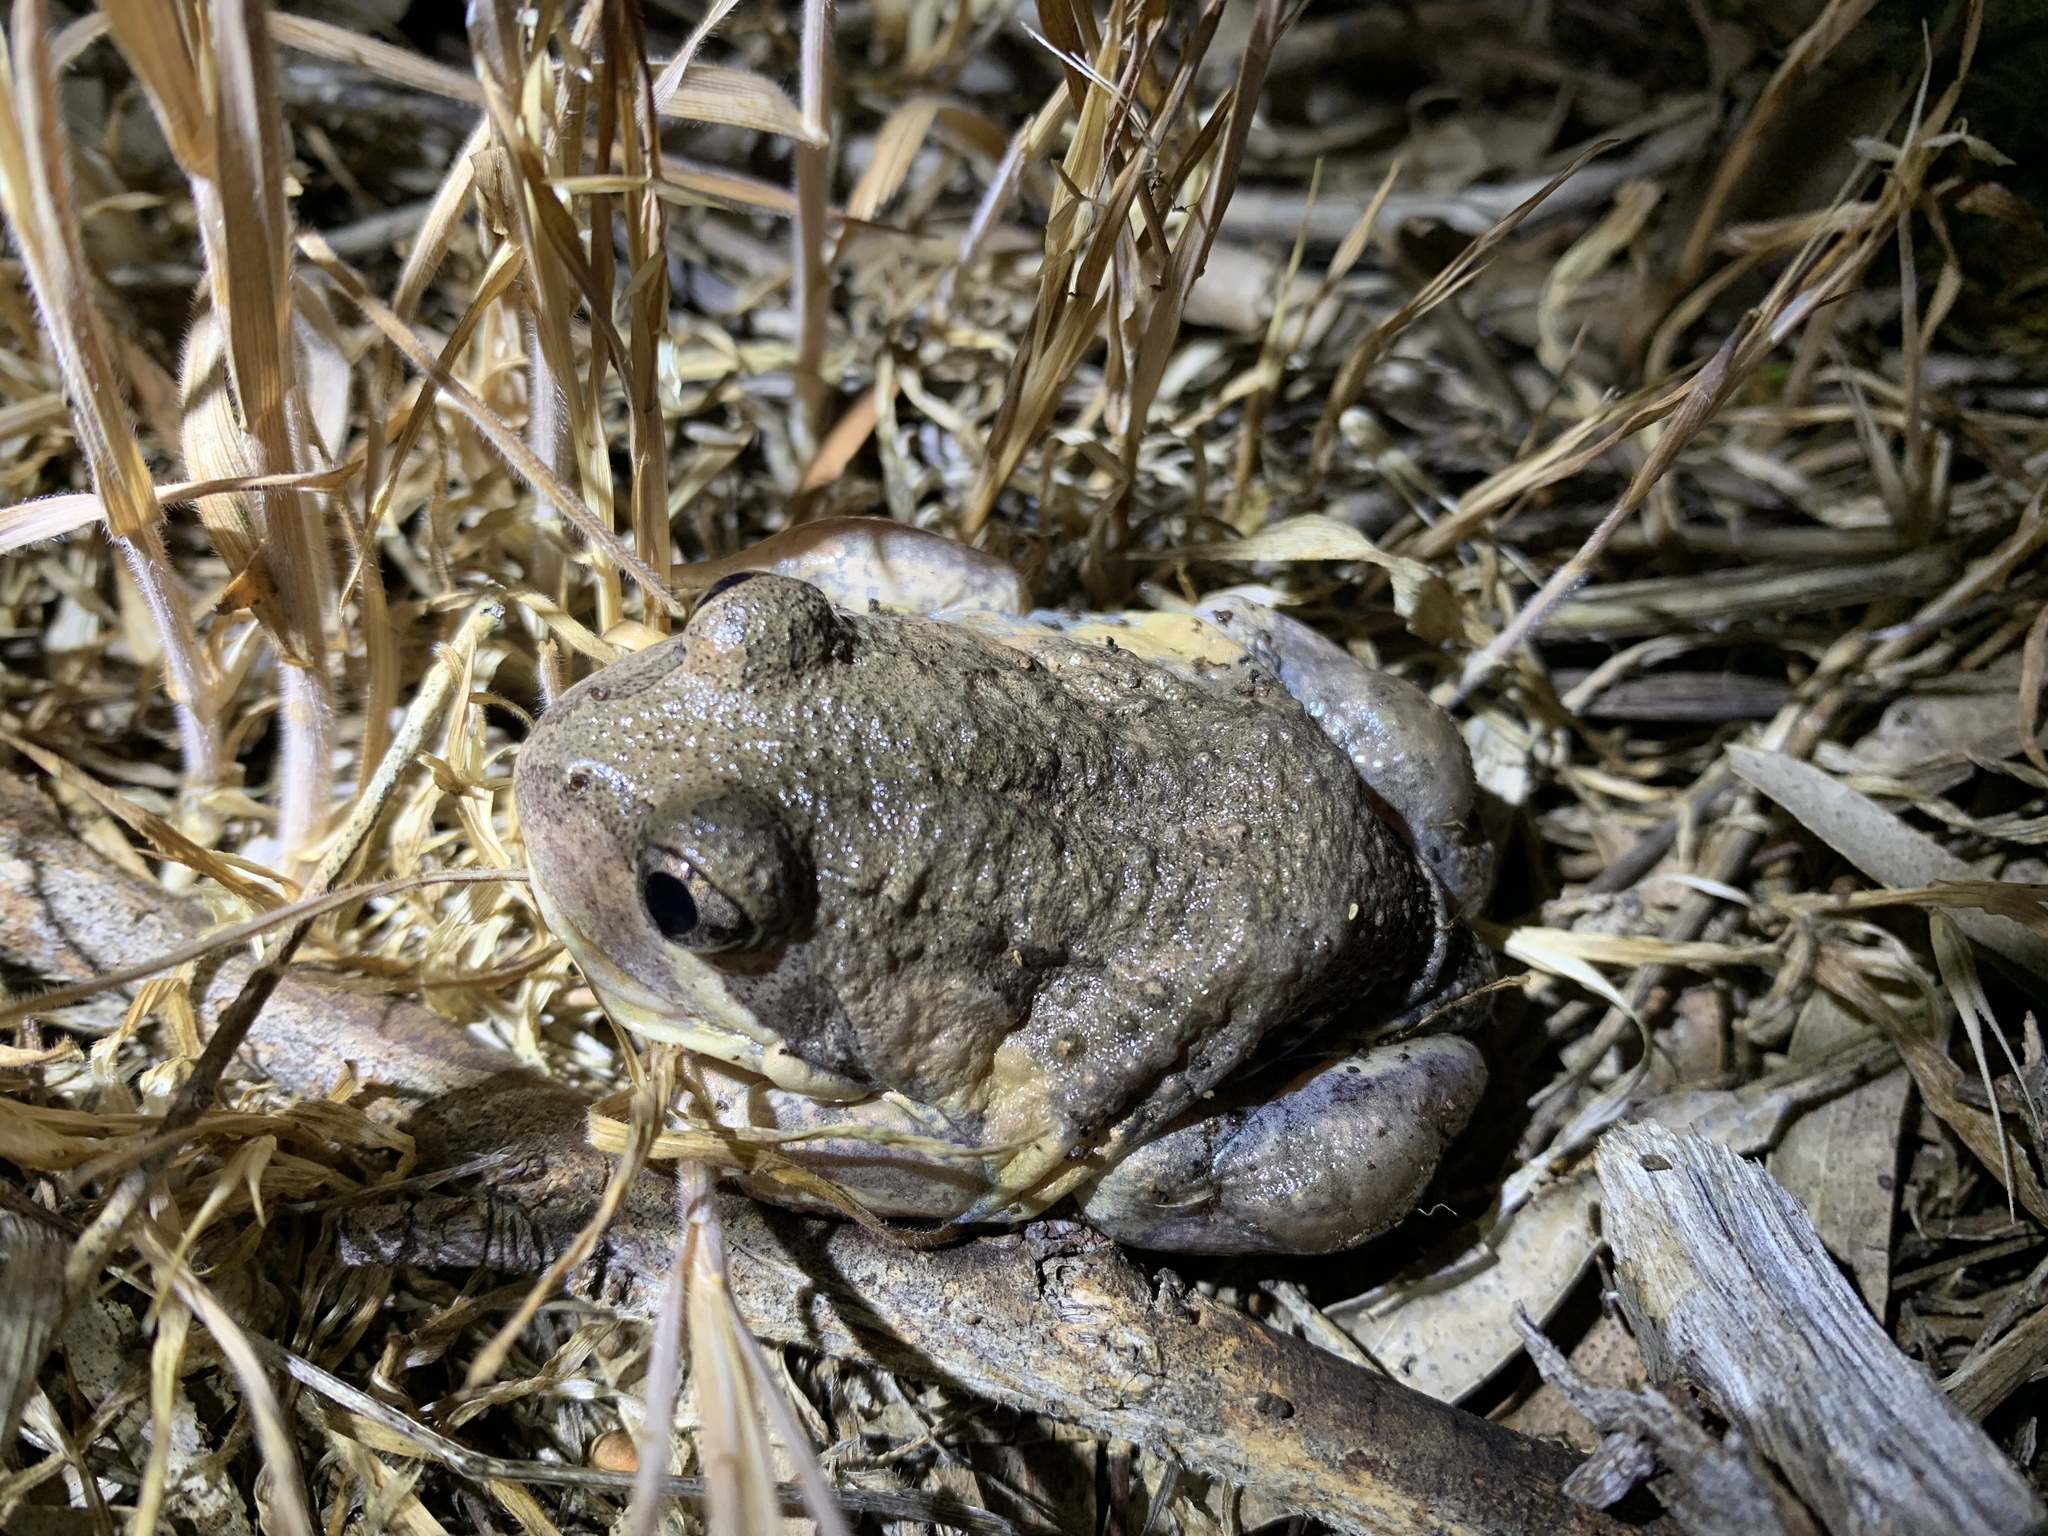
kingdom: Animalia
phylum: Chordata
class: Amphibia
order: Anura
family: Limnodynastidae
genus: Limnodynastes
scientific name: Limnodynastes dumerilii
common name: Banjo frog
